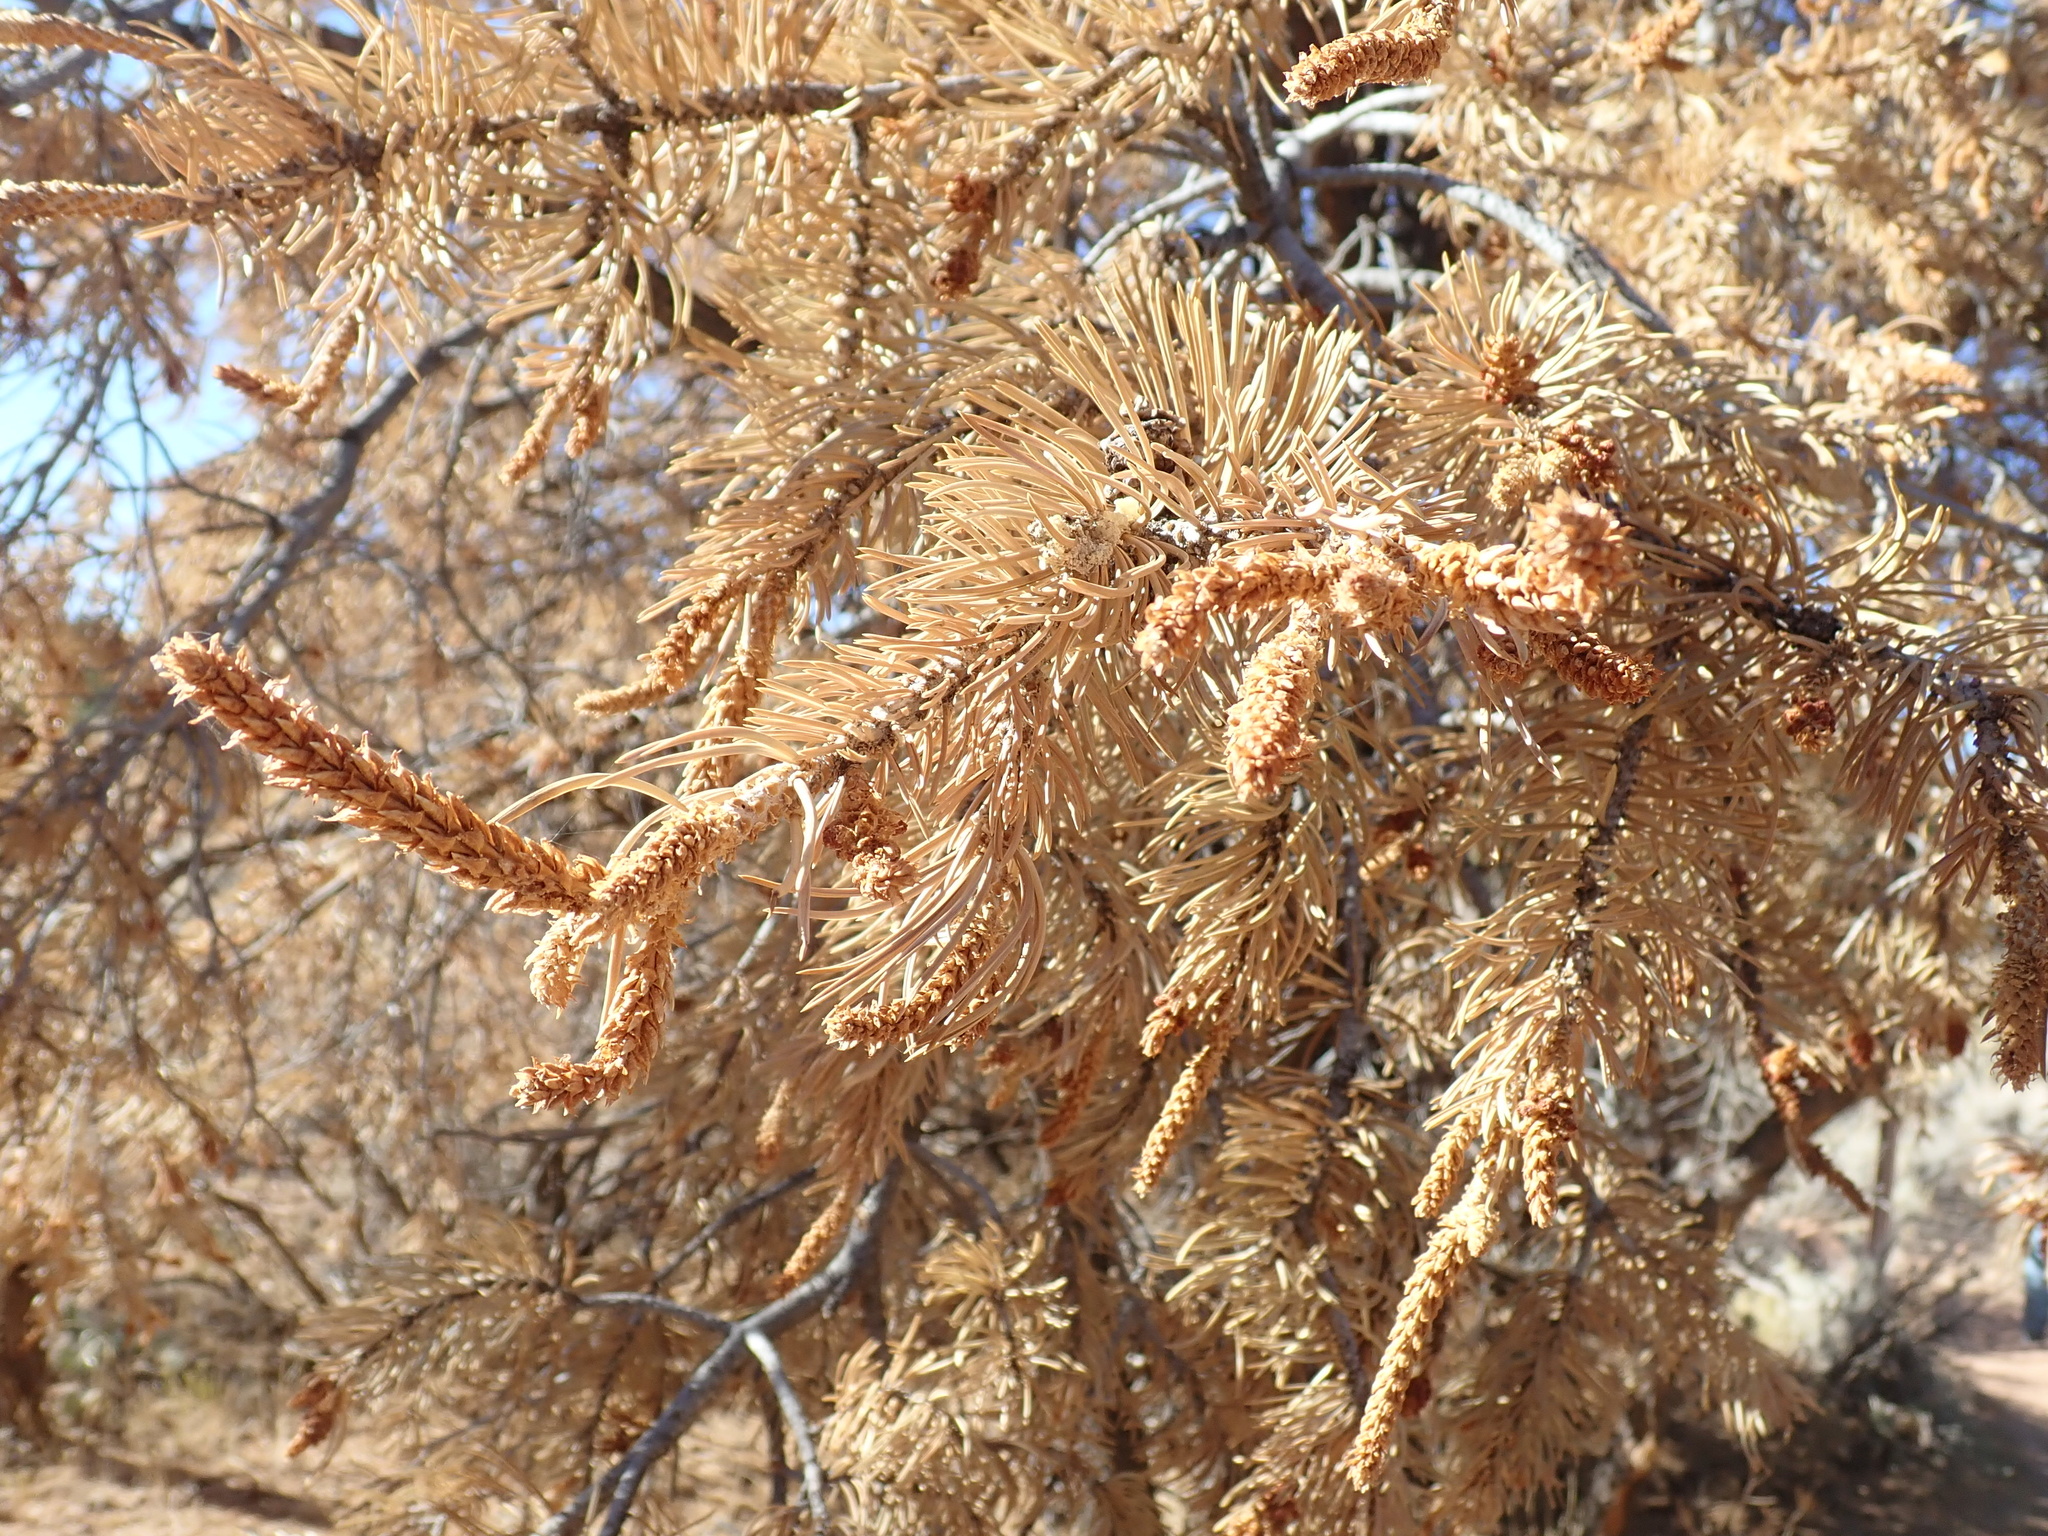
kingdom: Plantae
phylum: Tracheophyta
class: Pinopsida
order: Pinales
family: Pinaceae
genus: Pinus
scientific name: Pinus edulis
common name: Colorado pinyon
